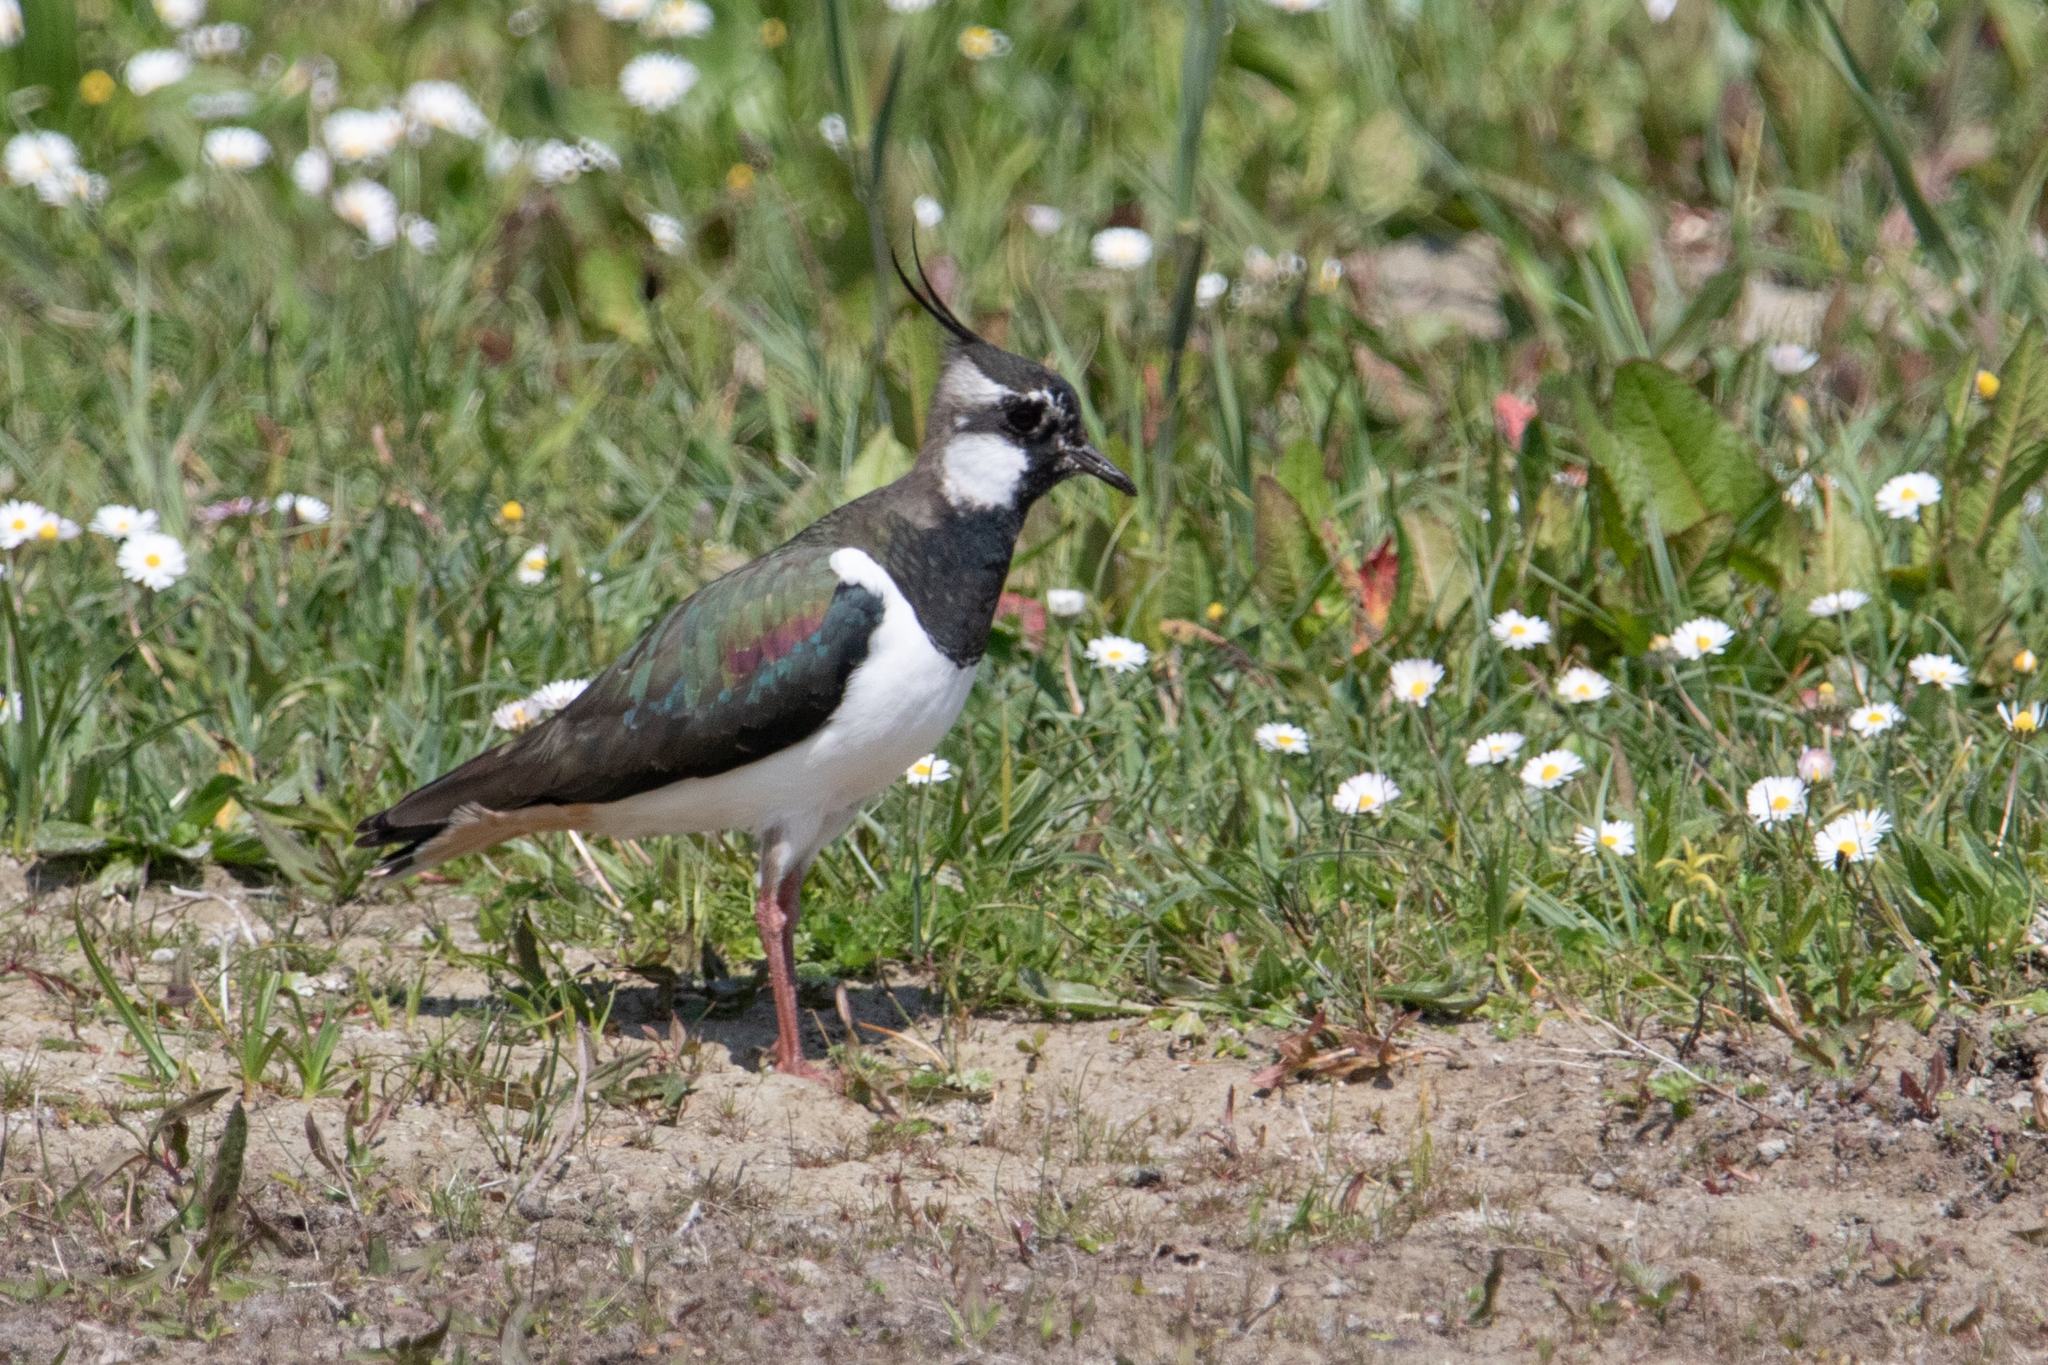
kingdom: Animalia
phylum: Chordata
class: Aves
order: Charadriiformes
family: Charadriidae
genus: Vanellus
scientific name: Vanellus vanellus
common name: Northern lapwing
